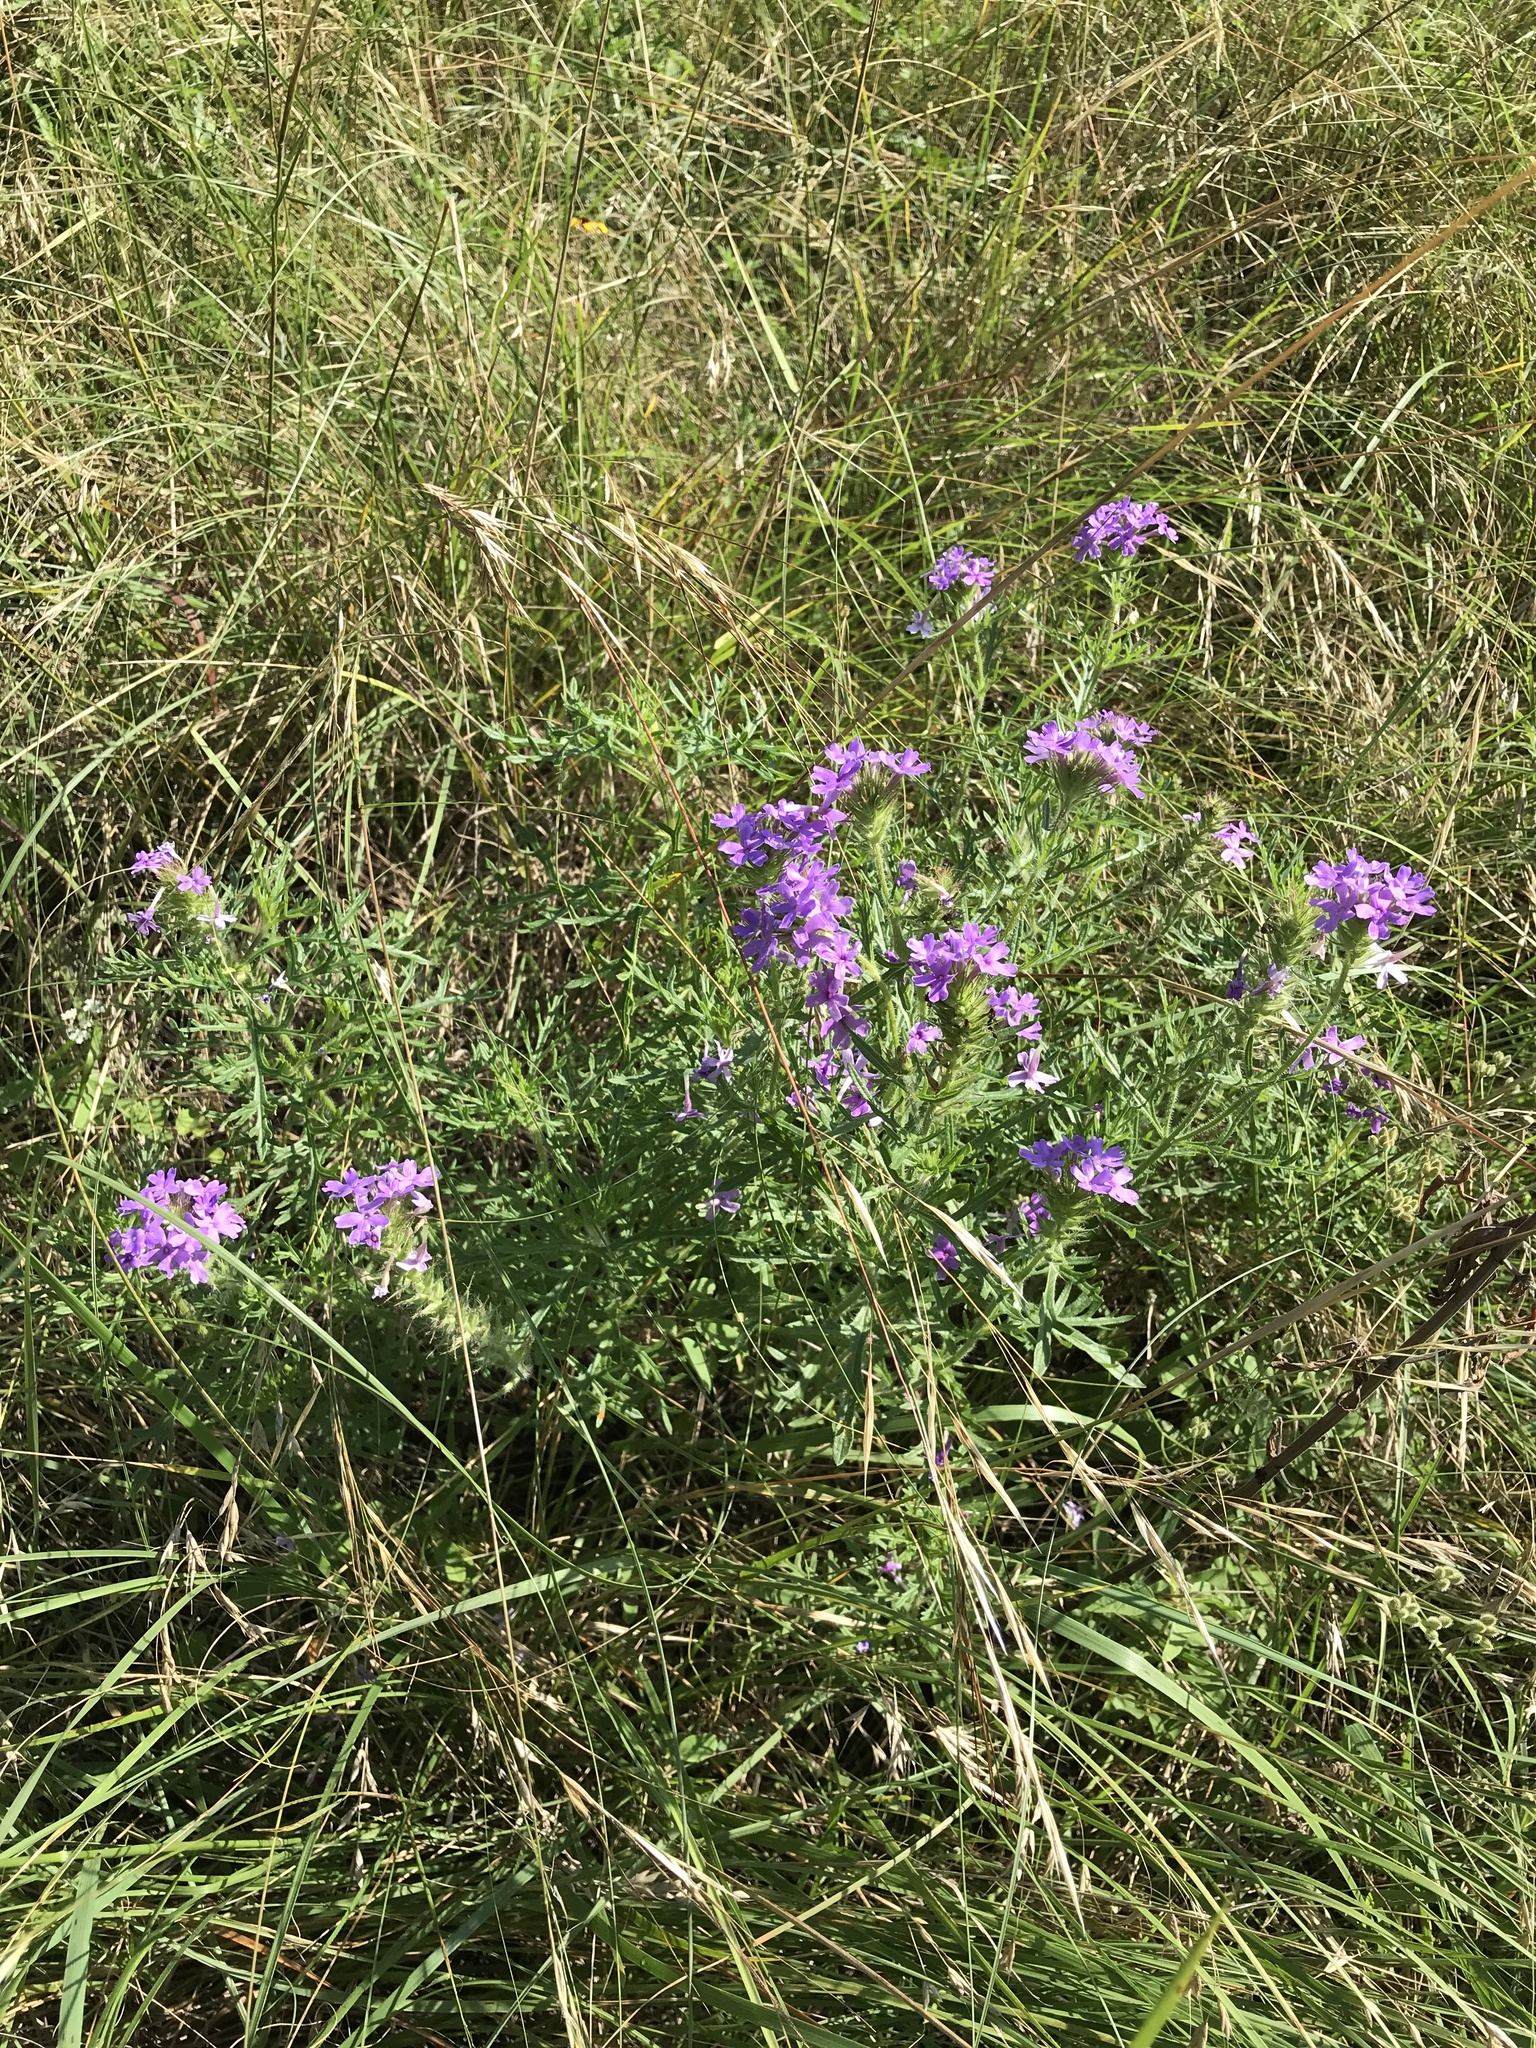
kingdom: Plantae
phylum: Tracheophyta
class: Magnoliopsida
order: Lamiales
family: Verbenaceae
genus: Verbena
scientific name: Verbena bipinnatifida
